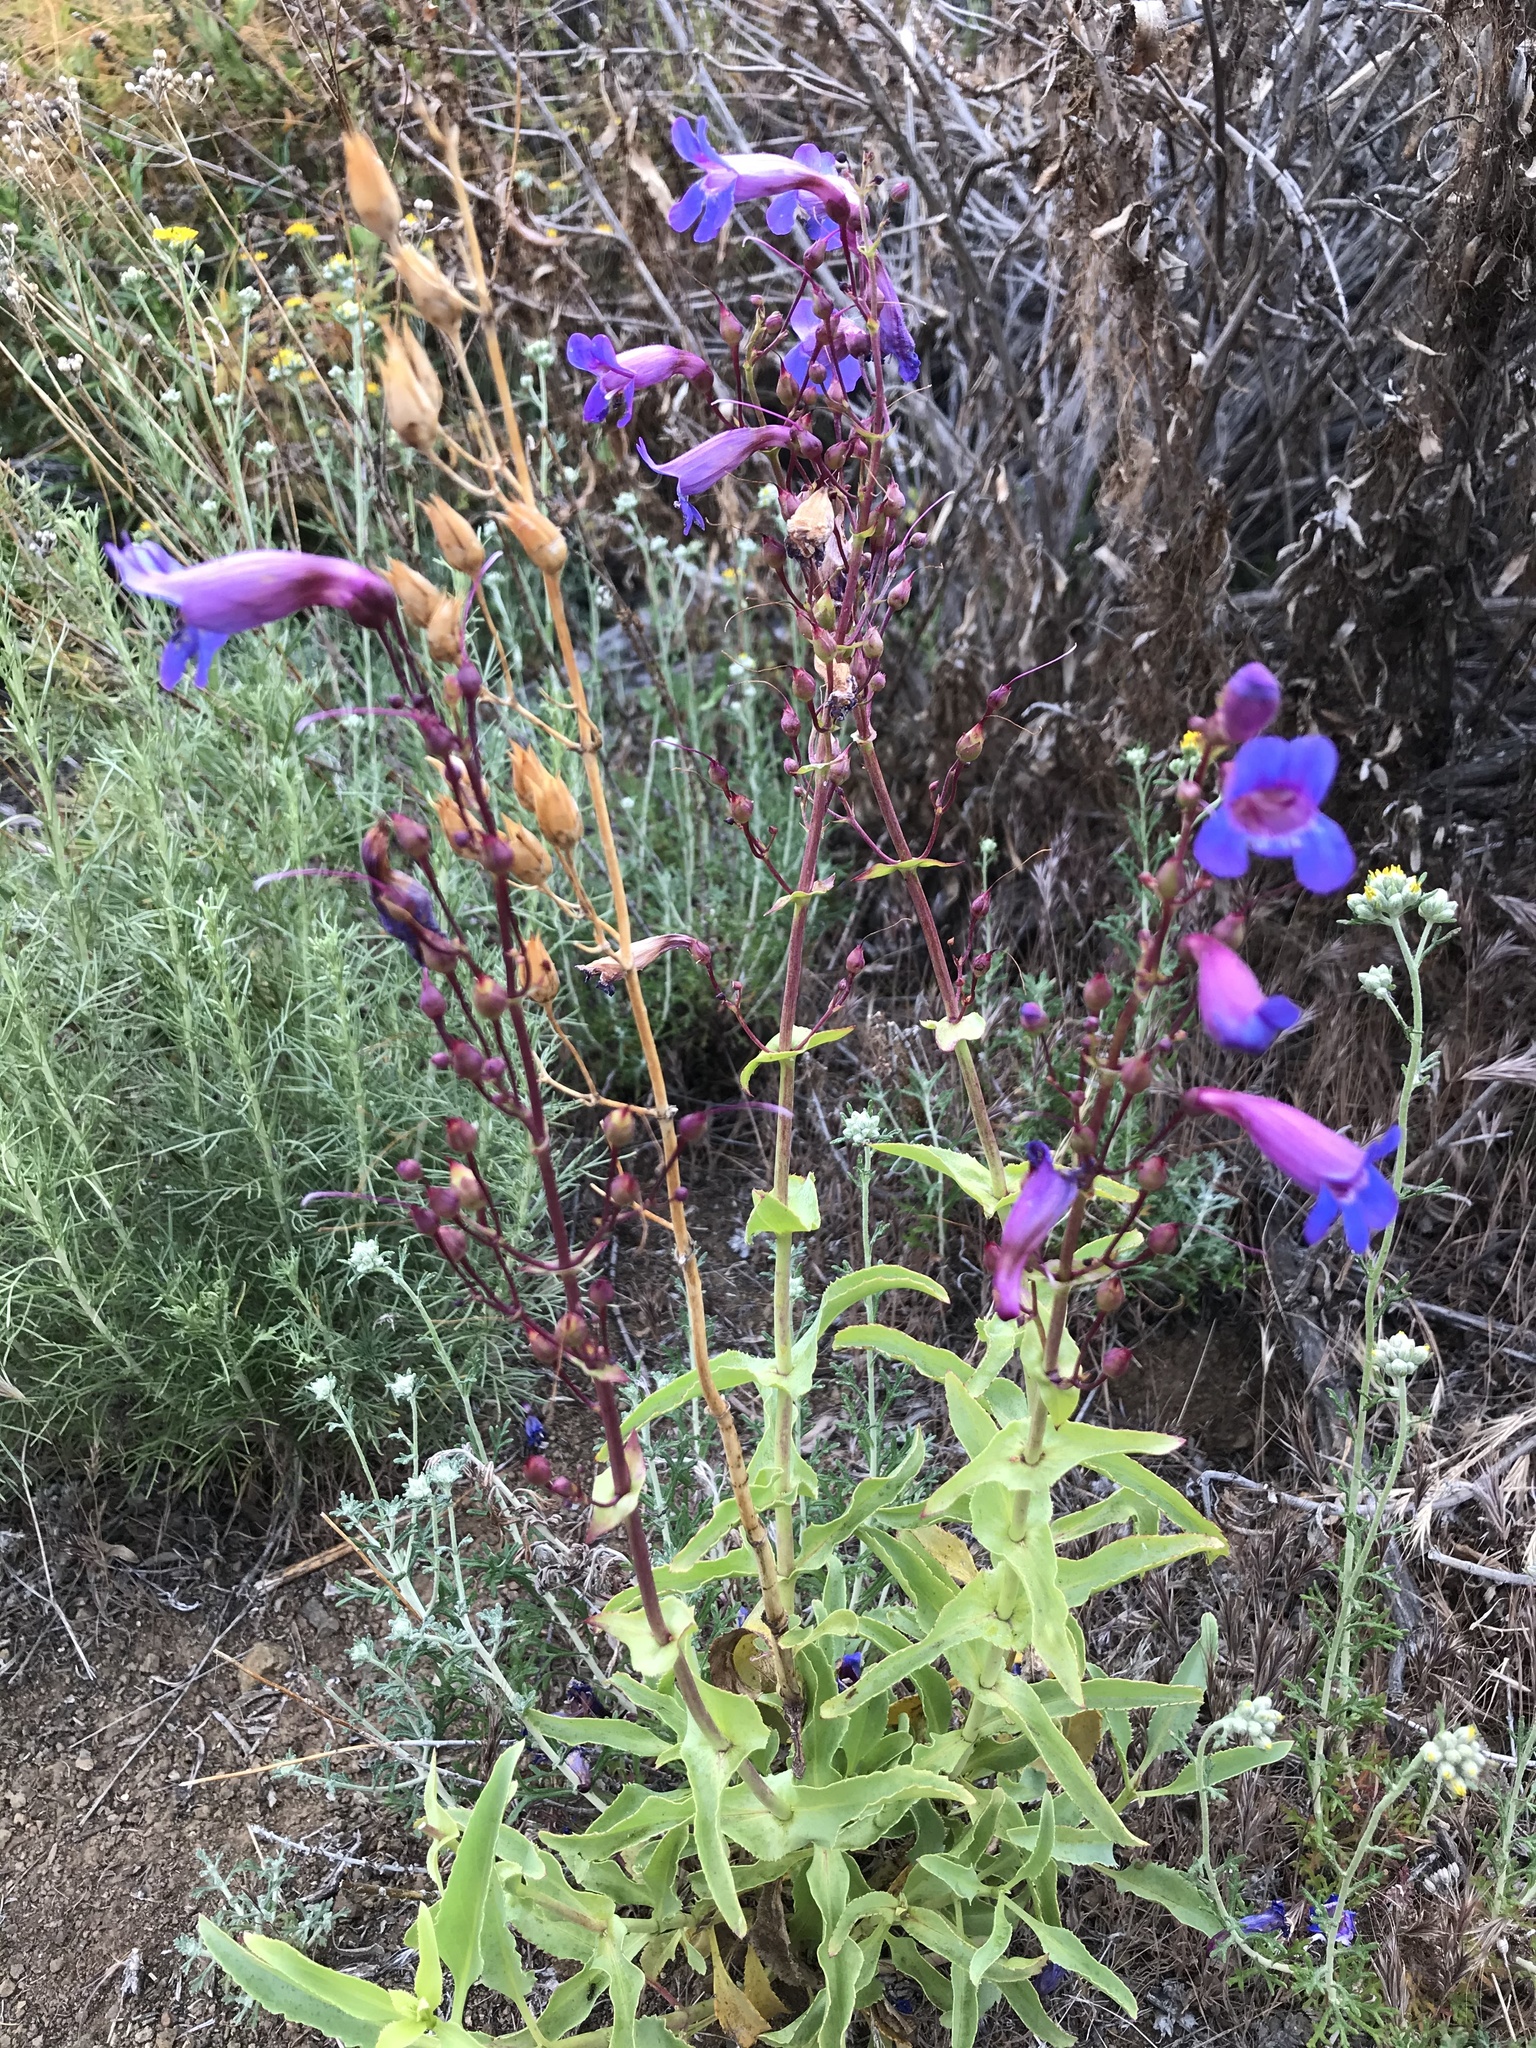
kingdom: Plantae
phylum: Tracheophyta
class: Magnoliopsida
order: Lamiales
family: Plantaginaceae
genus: Penstemon
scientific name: Penstemon spectabilis
